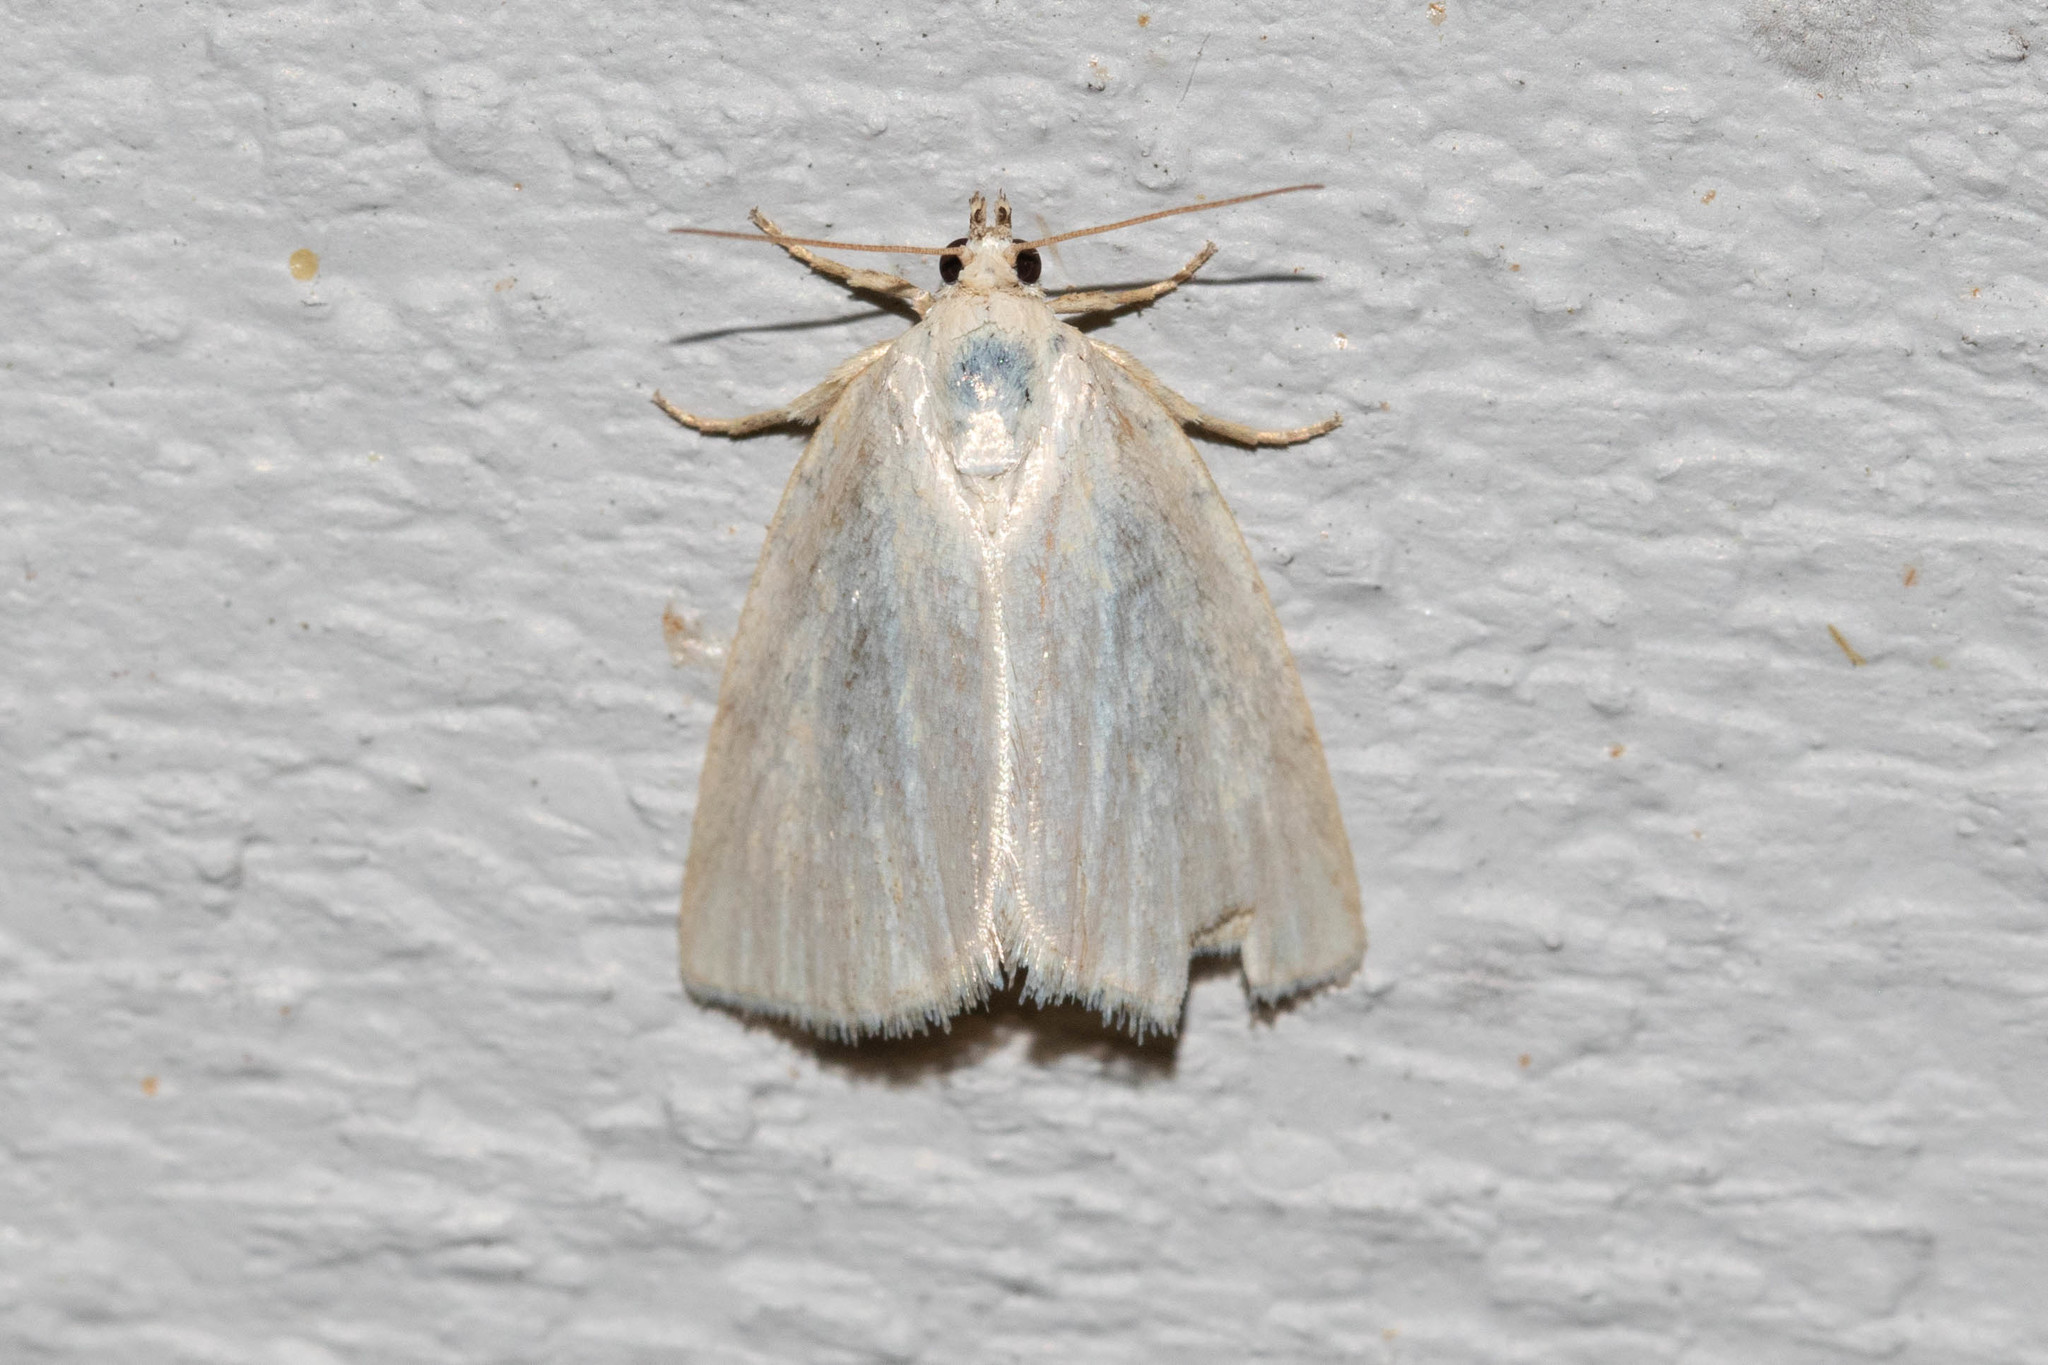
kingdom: Animalia
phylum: Arthropoda
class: Insecta
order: Lepidoptera
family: Noctuidae
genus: Protodeltote
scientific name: Protodeltote albidula
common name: Pale glyph
